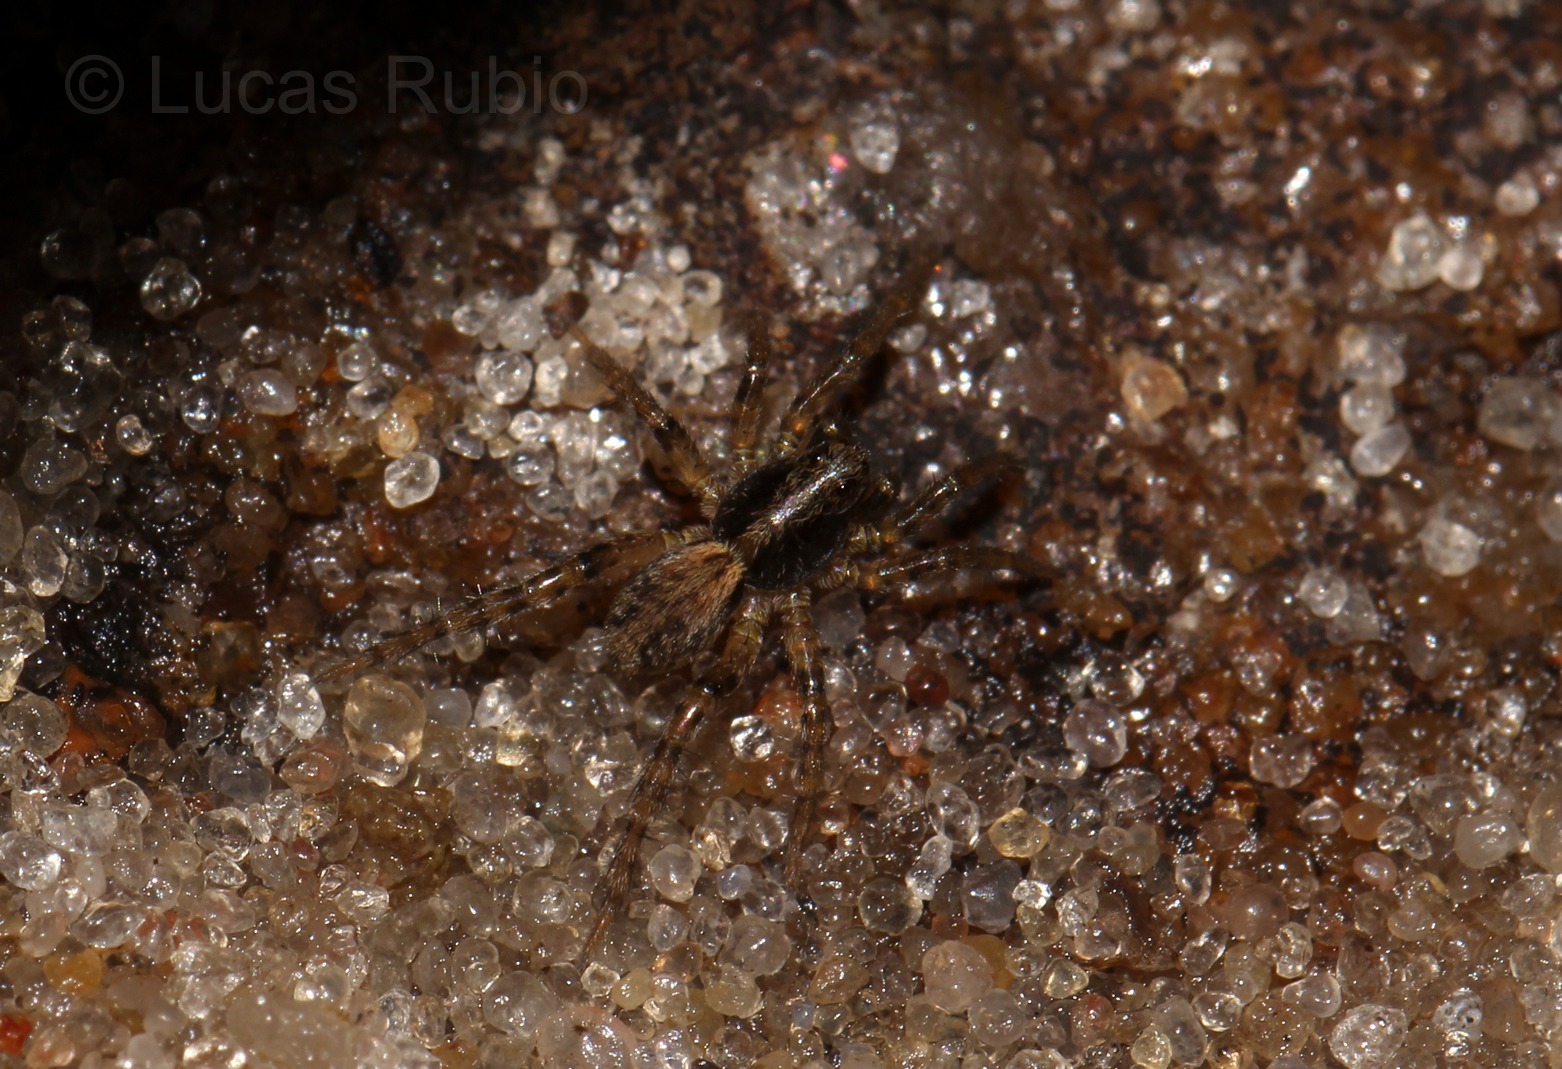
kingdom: Animalia
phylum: Arthropoda
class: Arachnida
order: Araneae
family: Lycosidae
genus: Abaycosa
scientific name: Abaycosa nanica
